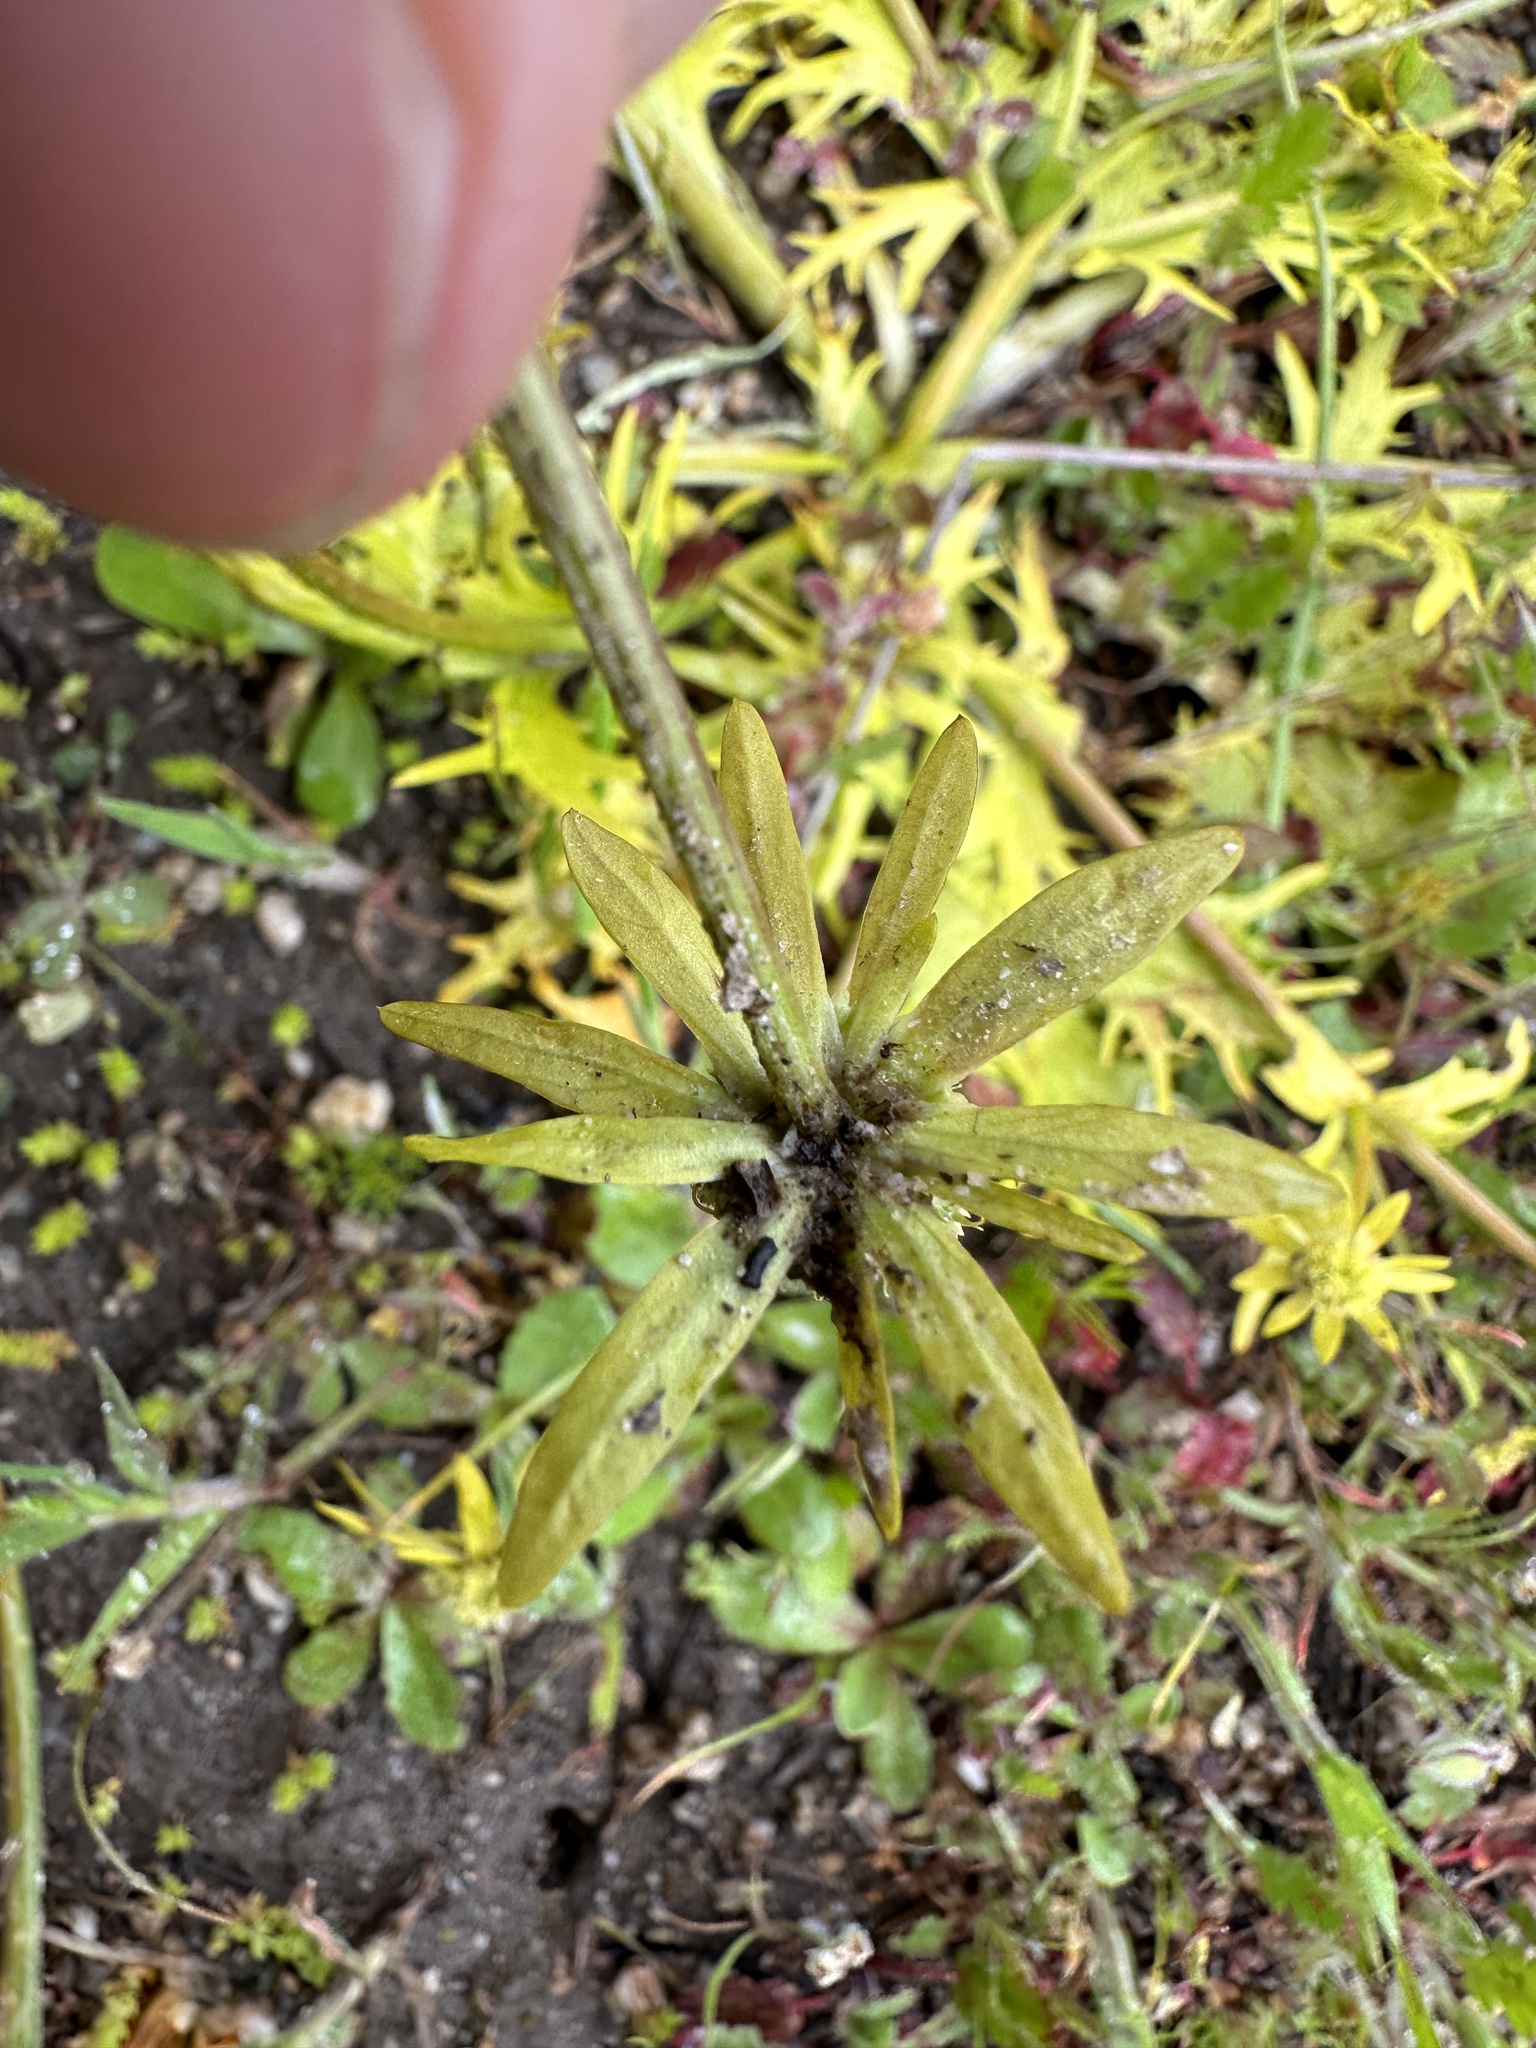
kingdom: Plantae
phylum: Tracheophyta
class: Magnoliopsida
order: Apiales
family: Apiaceae
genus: Sanicula
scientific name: Sanicula arctopoides
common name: Footsteps-of-spring
